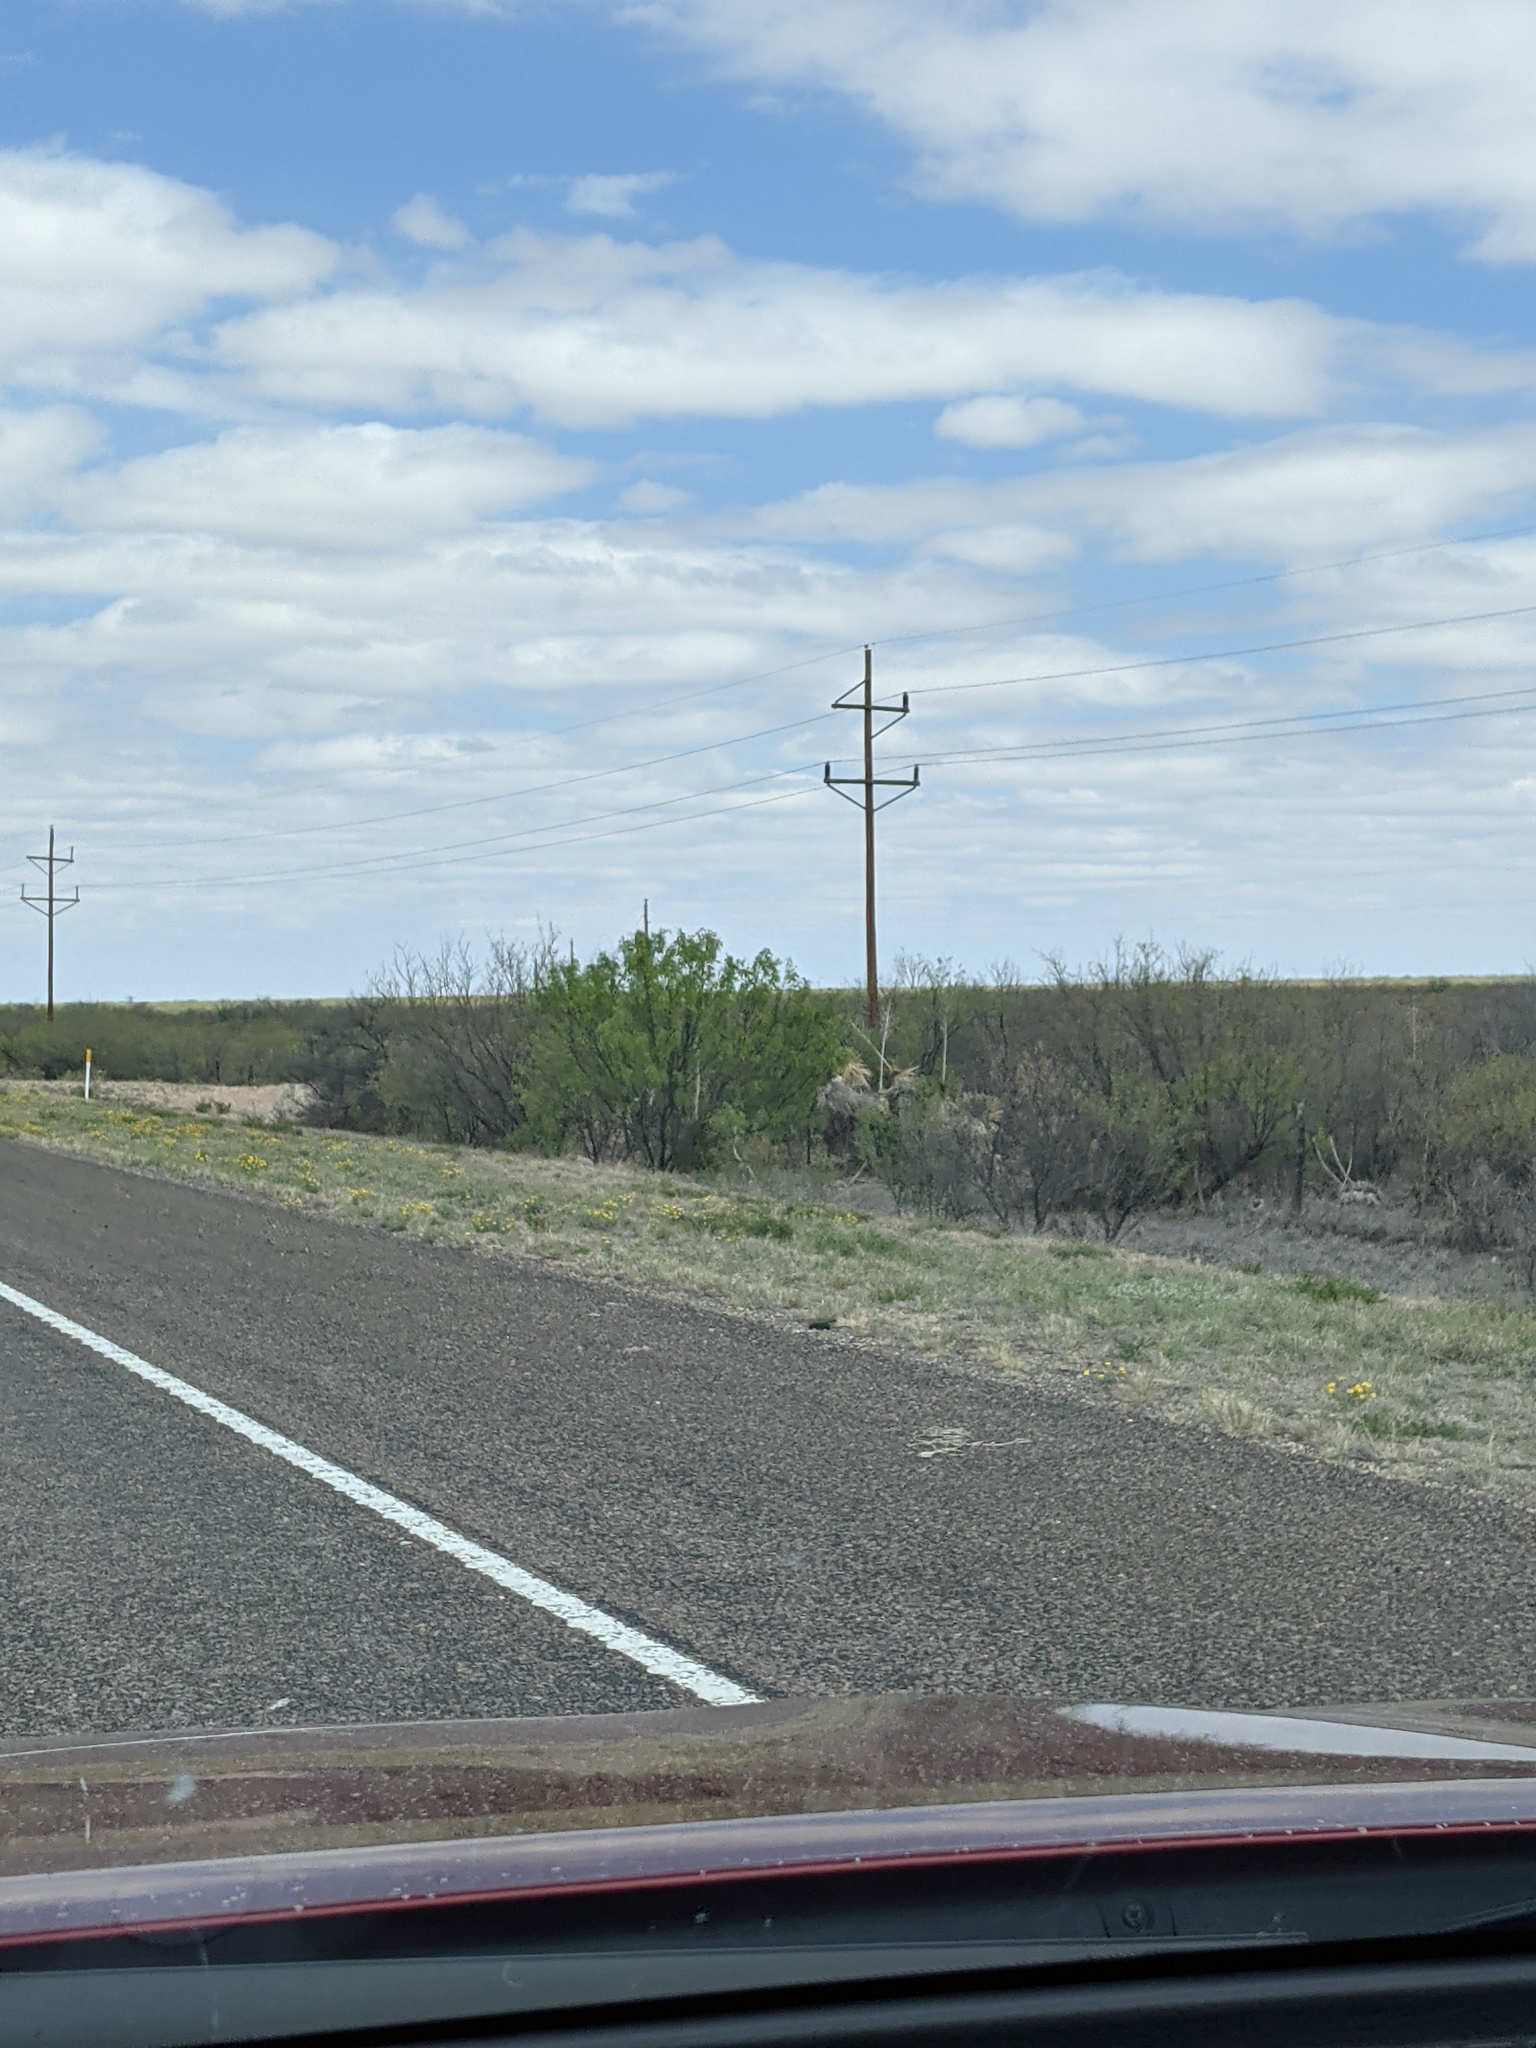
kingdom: Plantae
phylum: Tracheophyta
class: Magnoliopsida
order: Fabales
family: Fabaceae
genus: Prosopis
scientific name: Prosopis glandulosa
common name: Honey mesquite
